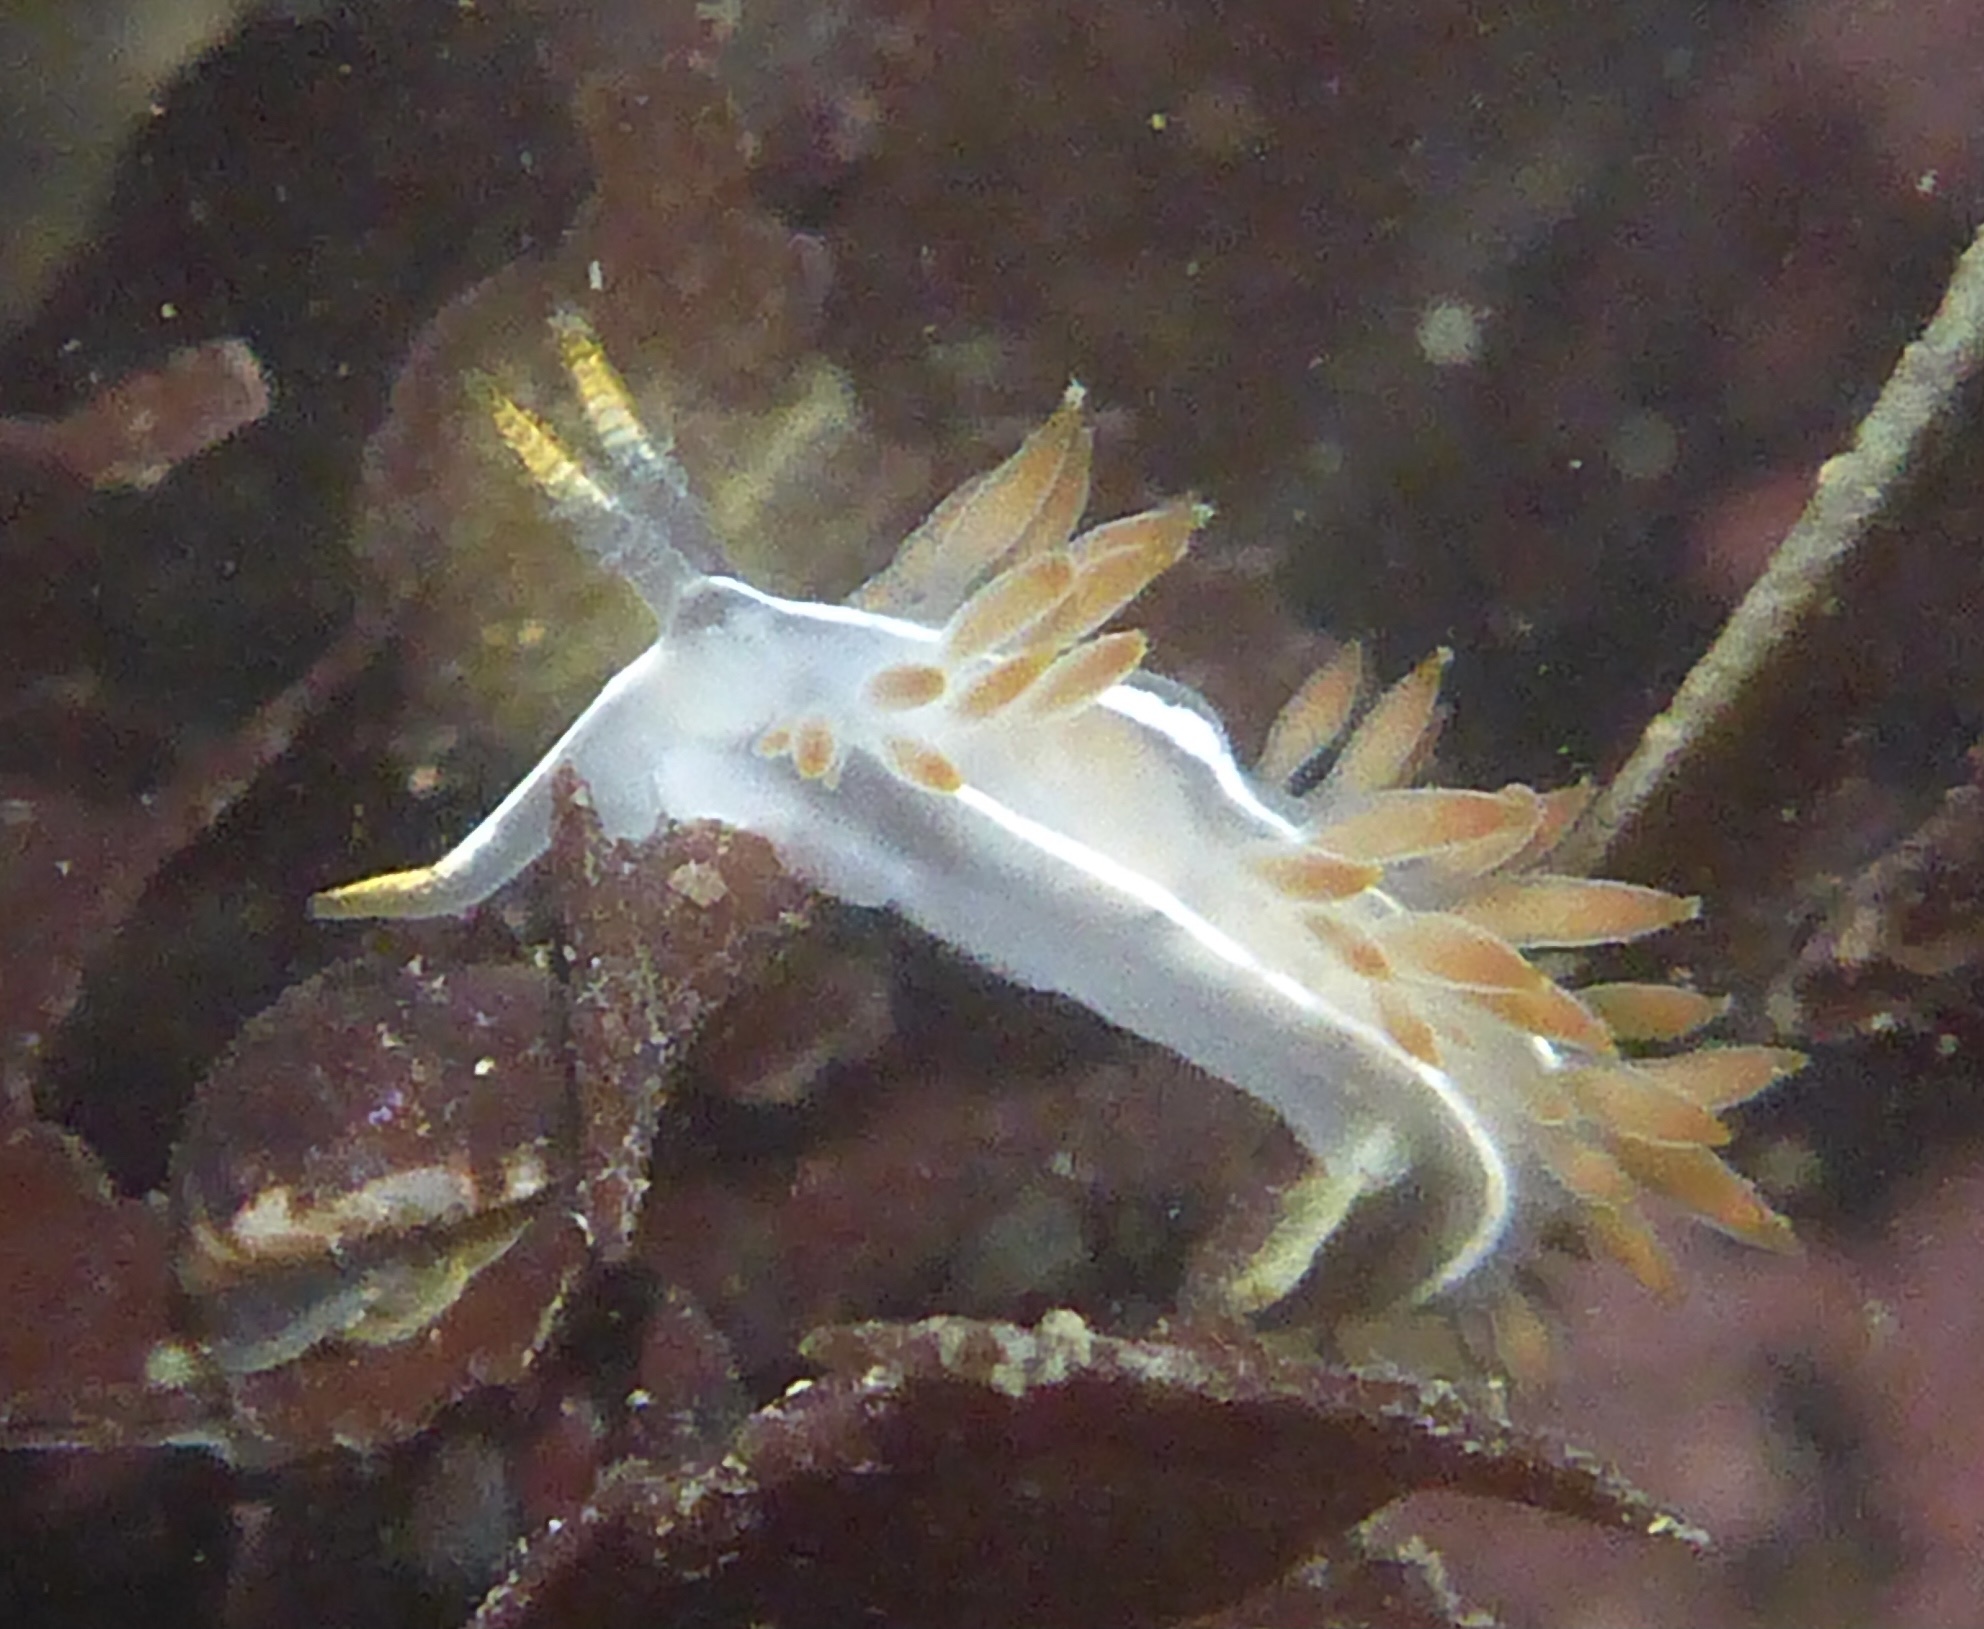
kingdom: Animalia
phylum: Mollusca
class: Gastropoda
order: Nudibranchia
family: Coryphellidae
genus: Coryphella
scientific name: Coryphella trilineata
